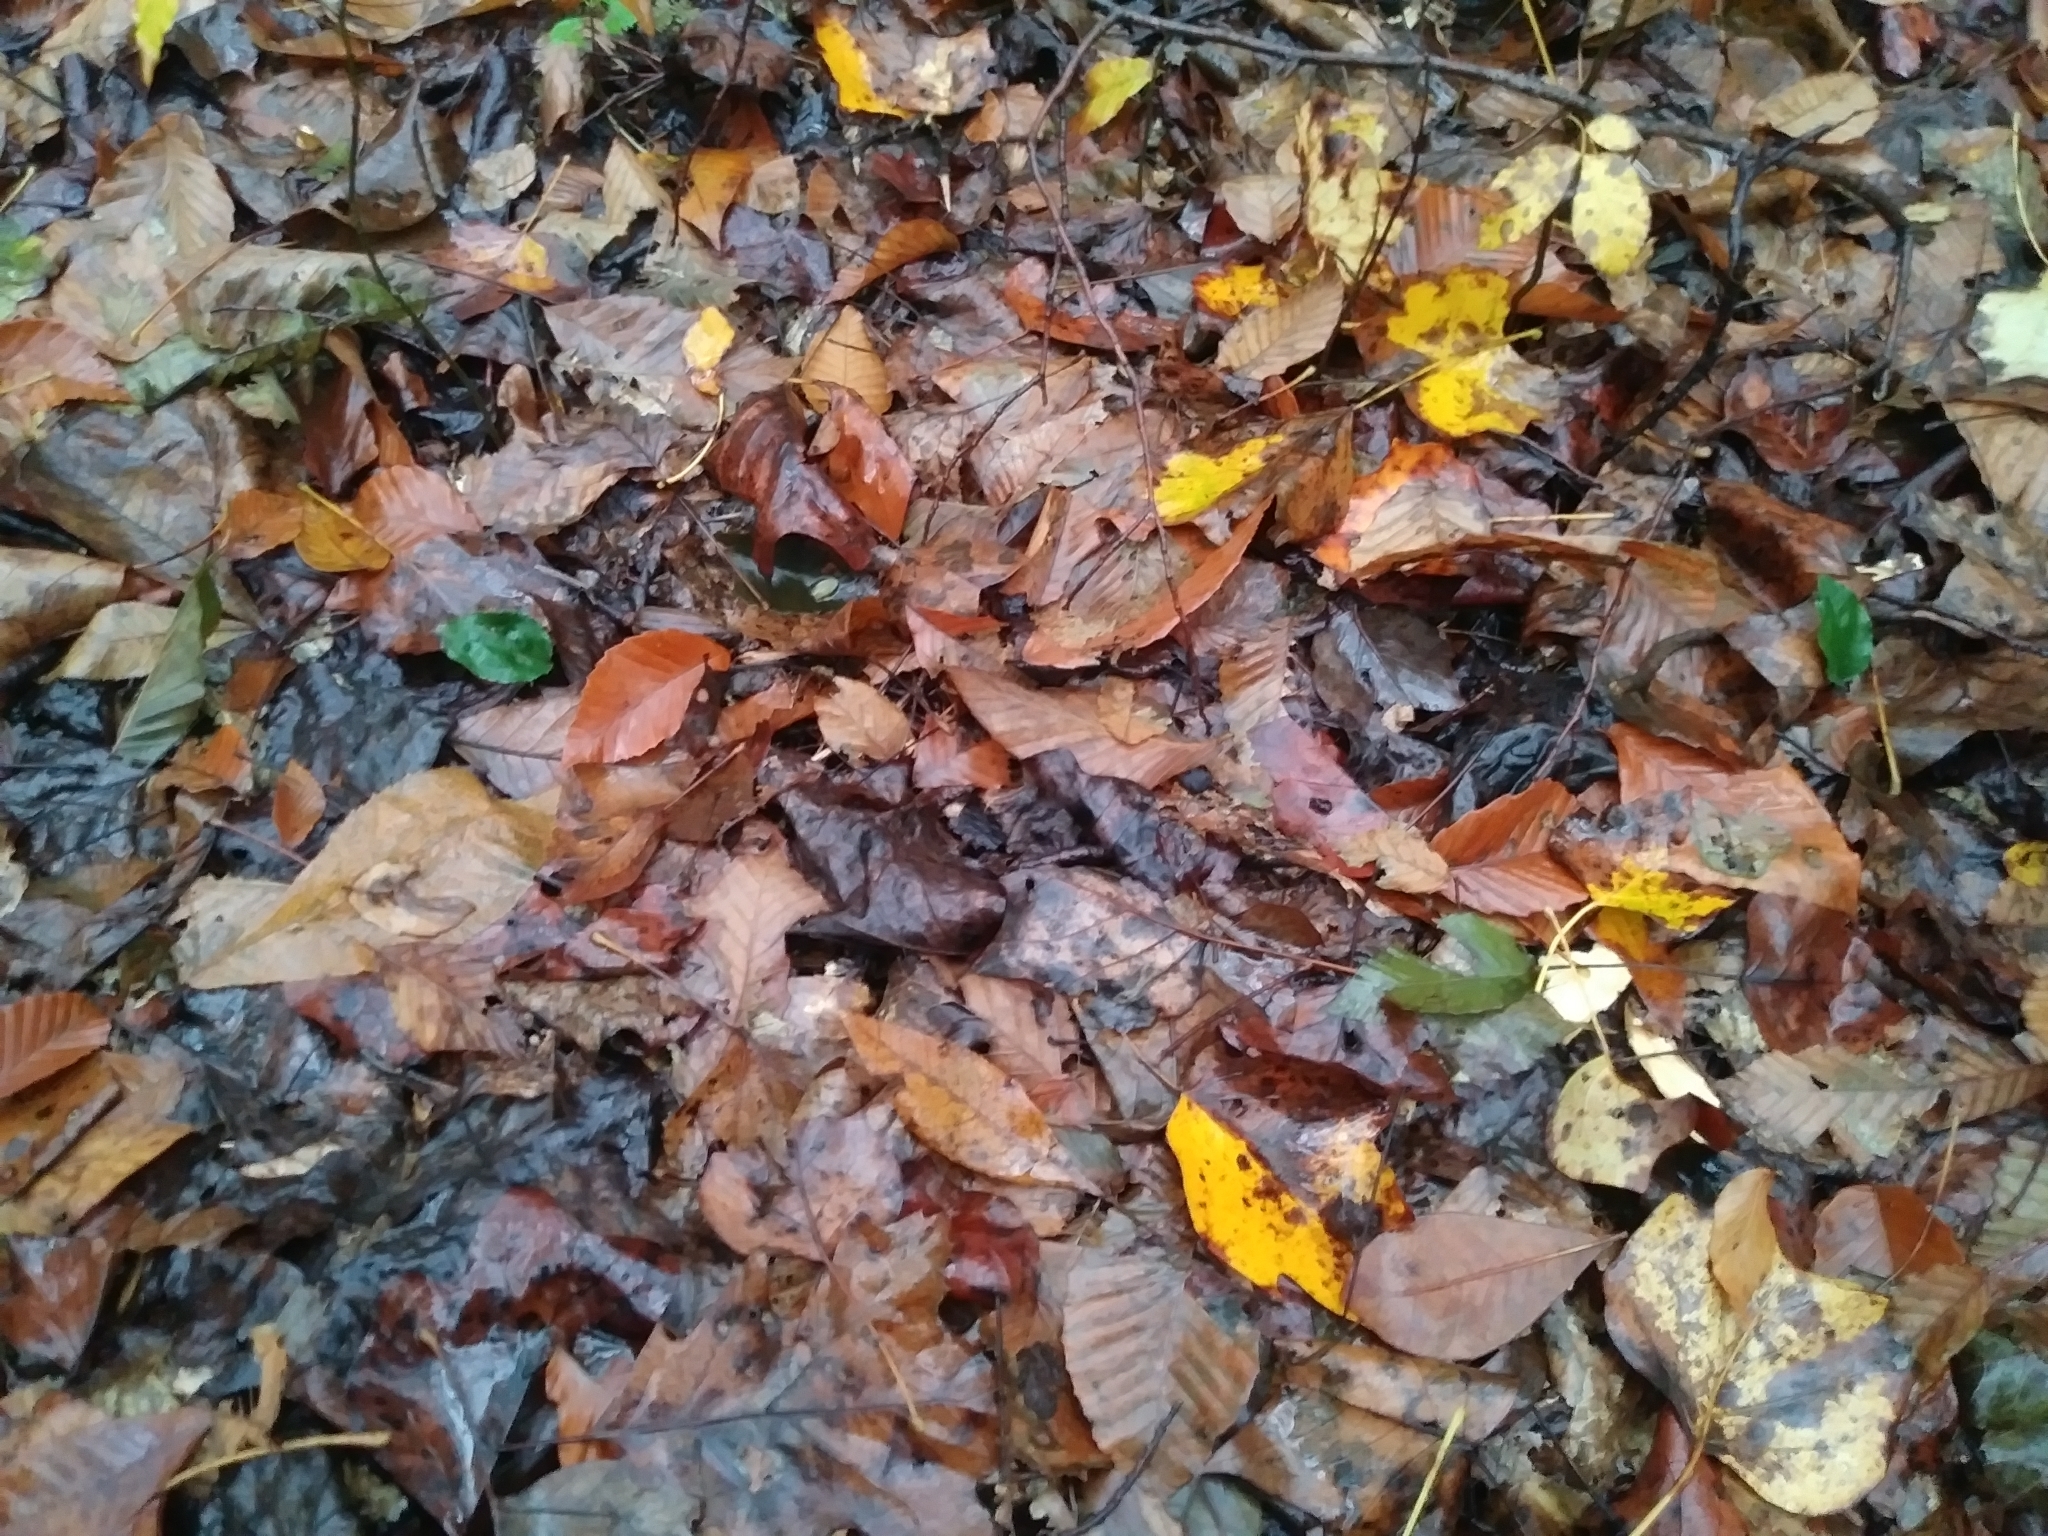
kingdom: Plantae
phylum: Tracheophyta
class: Liliopsida
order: Asparagales
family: Orchidaceae
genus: Tipularia
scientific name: Tipularia discolor
